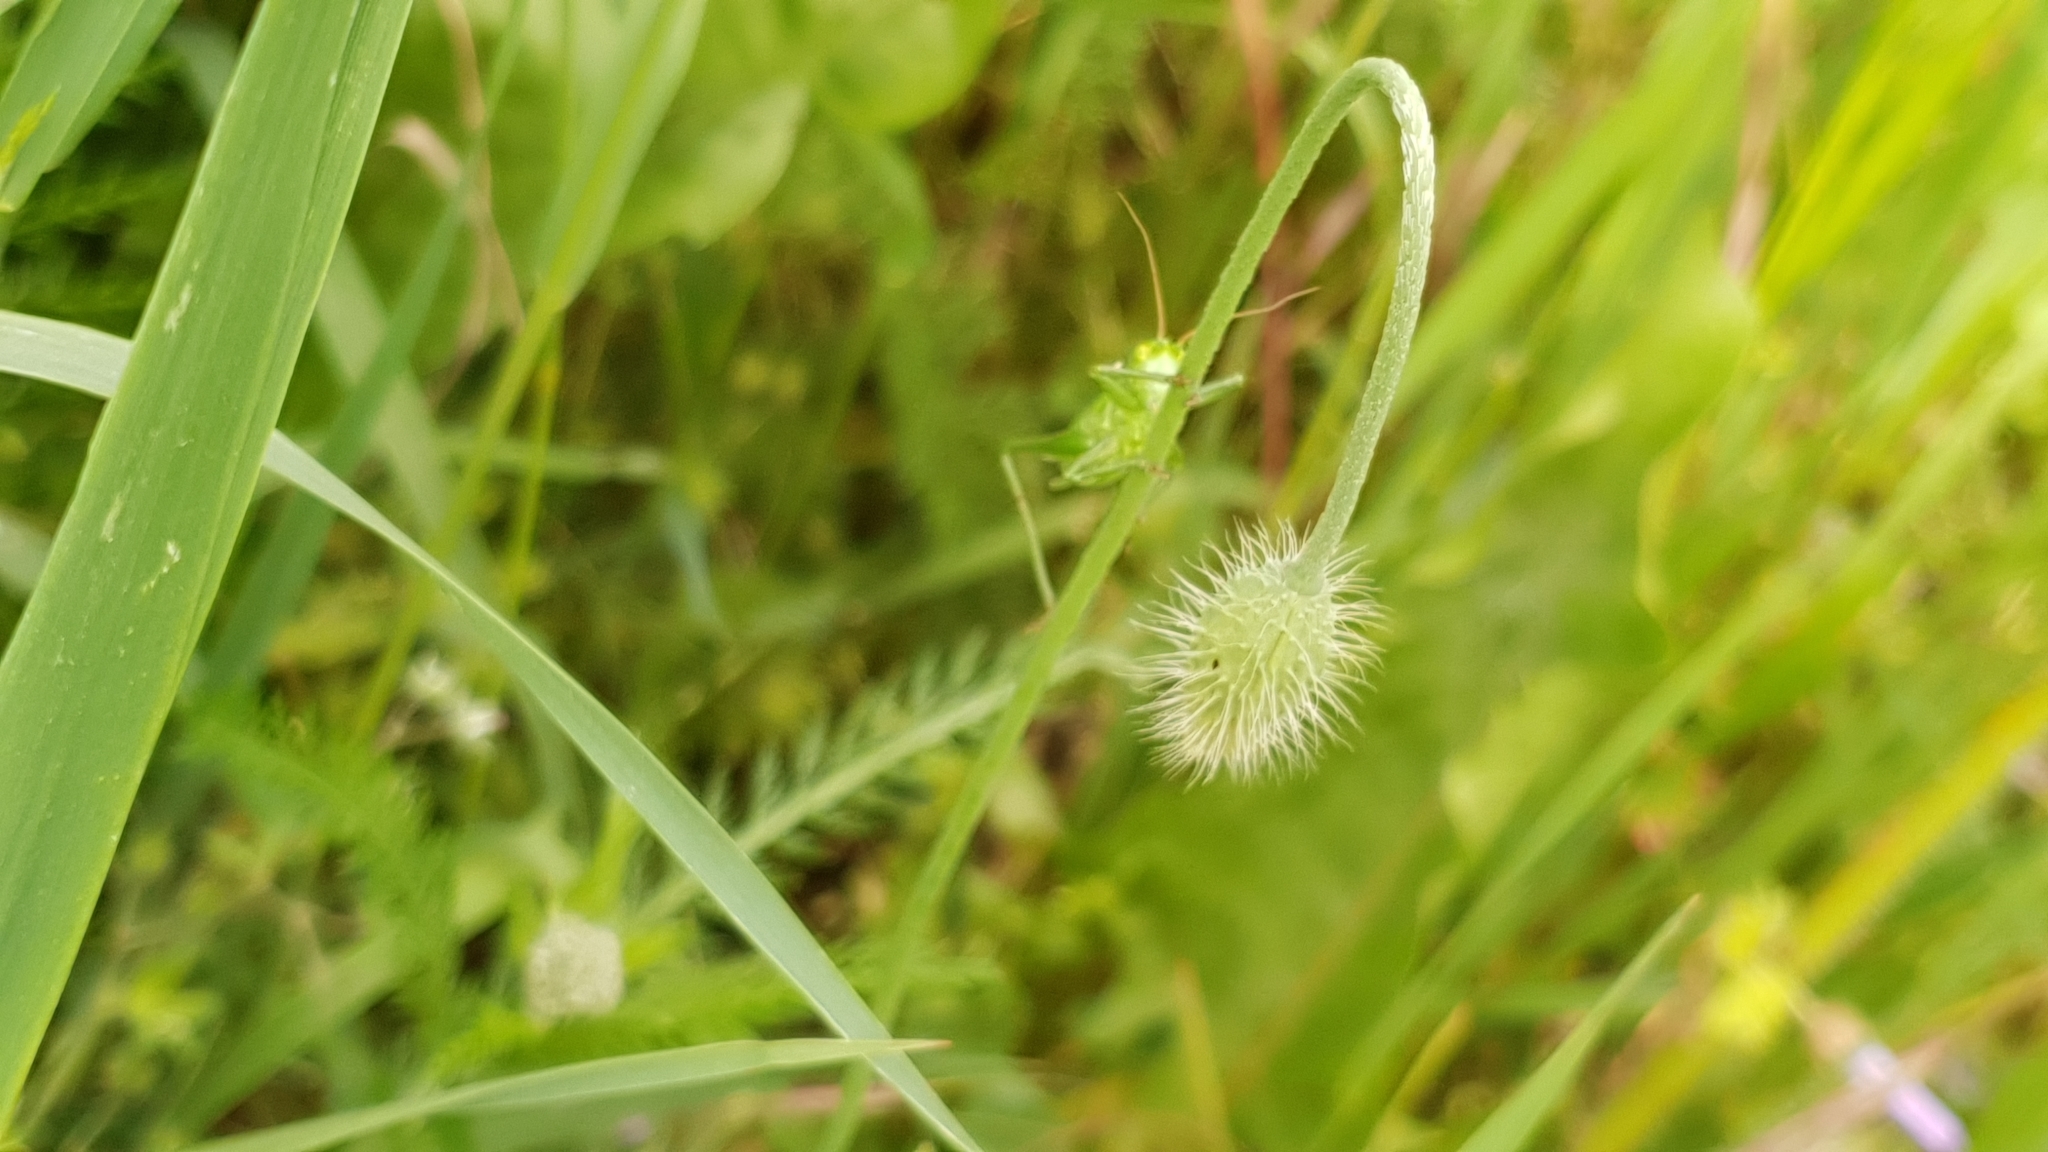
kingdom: Animalia
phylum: Arthropoda
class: Insecta
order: Orthoptera
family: Tettigoniidae
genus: Tettigonia
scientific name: Tettigonia viridissima
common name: Great green bush-cricket
